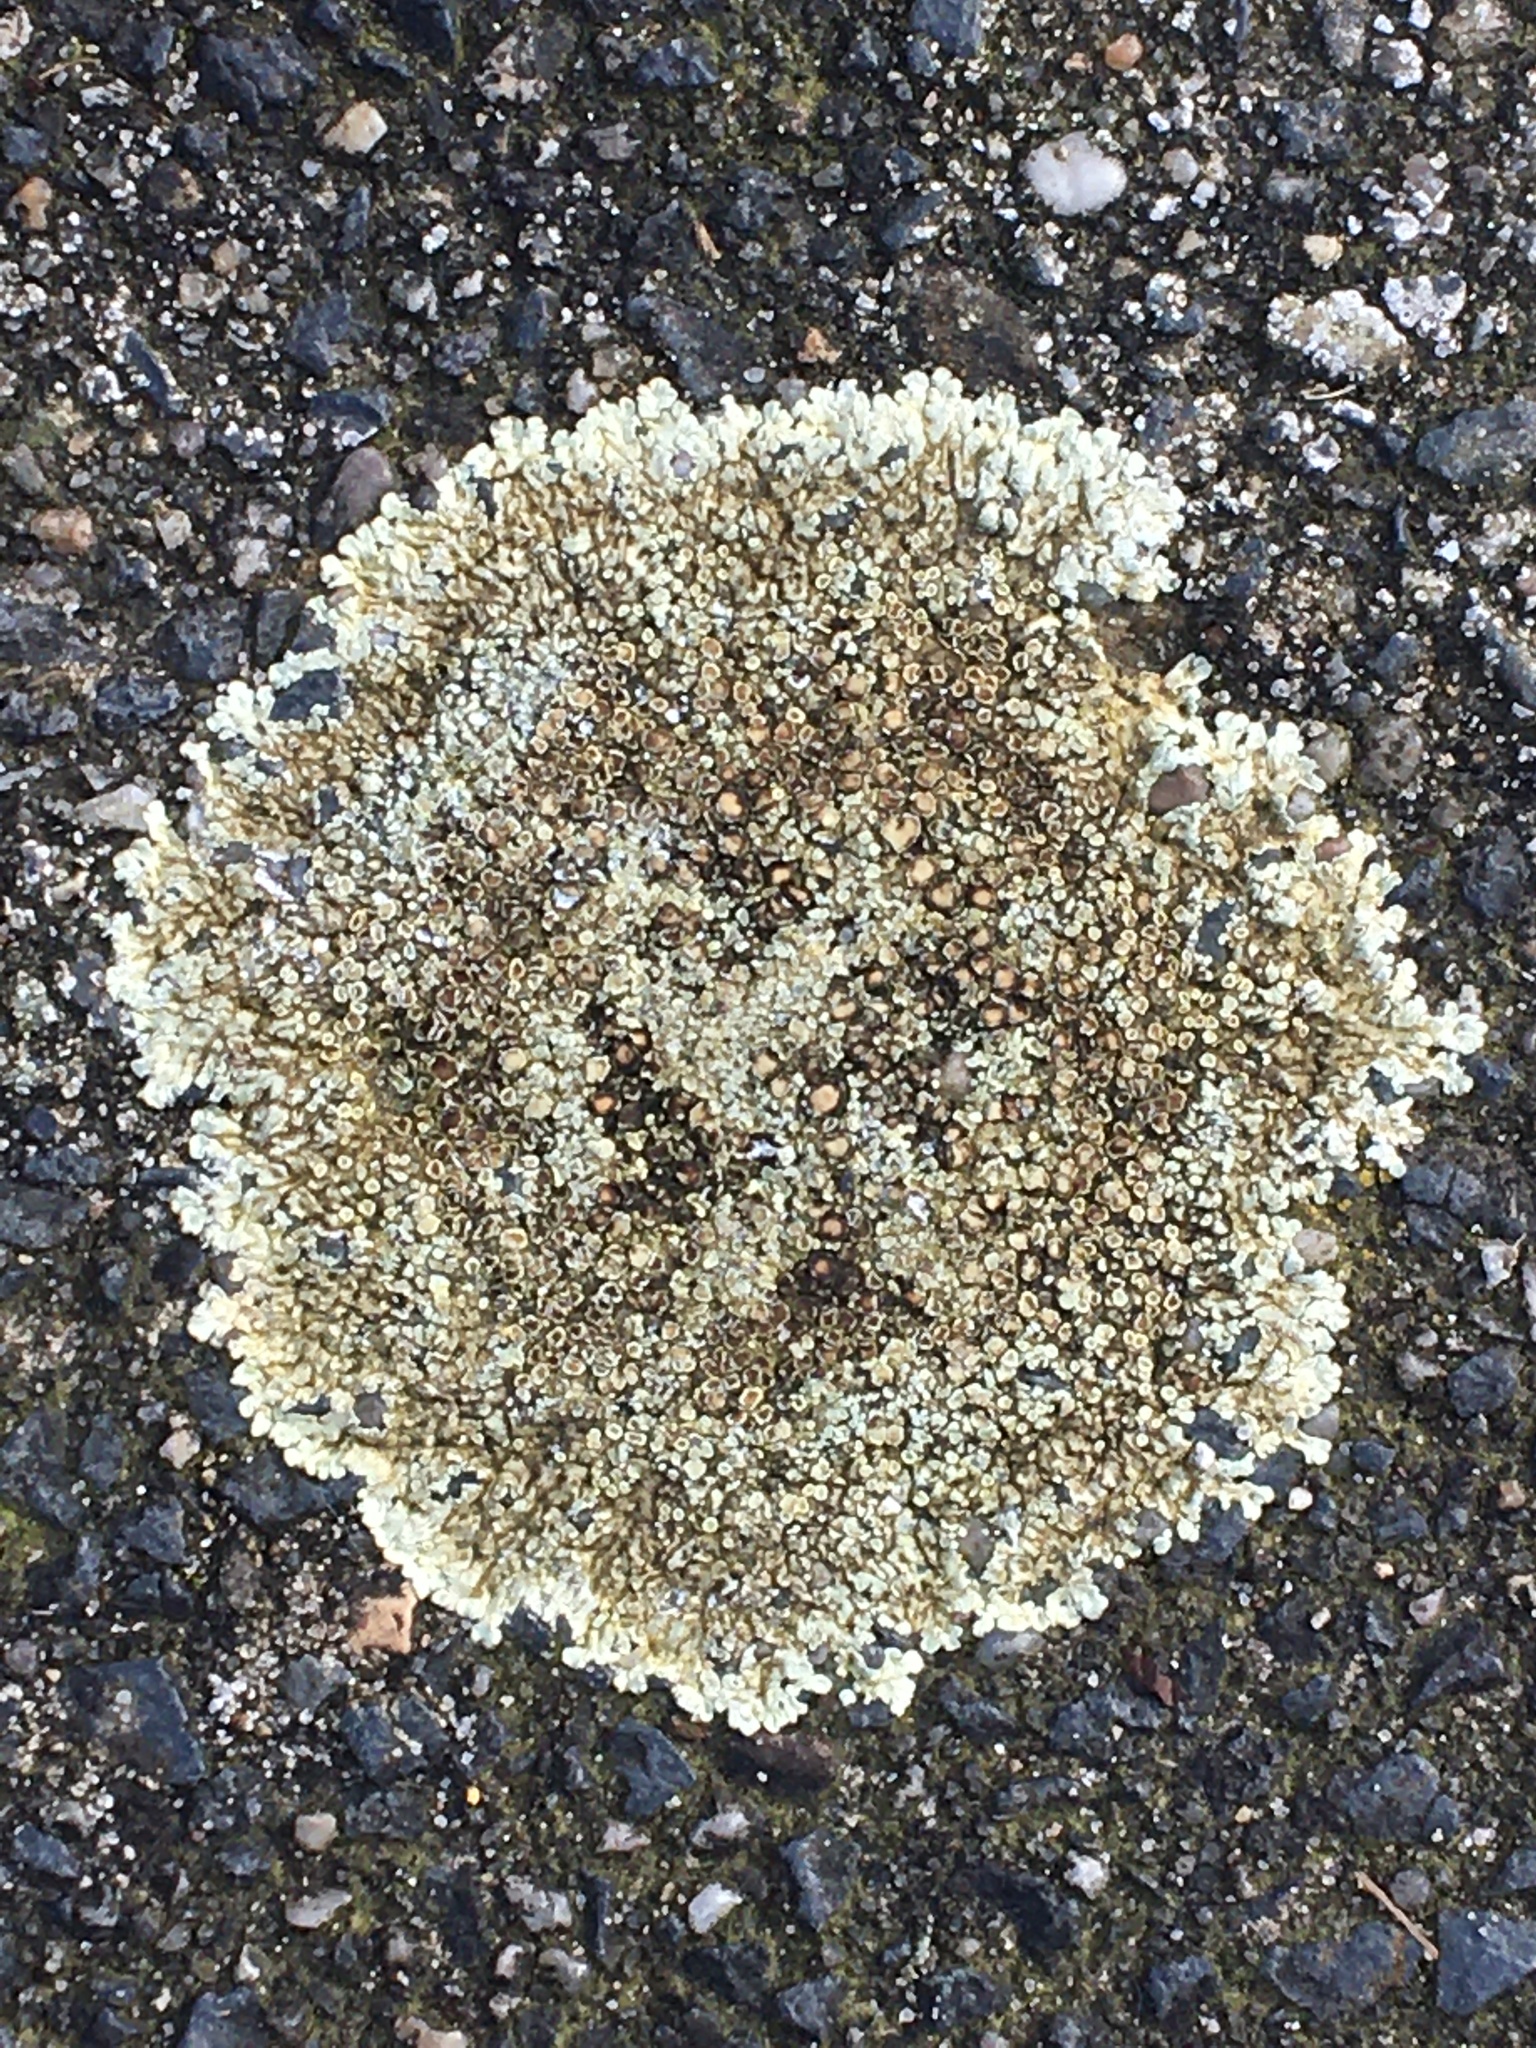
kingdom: Fungi
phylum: Ascomycota
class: Lecanoromycetes
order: Lecanorales
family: Lecanoraceae
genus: Protoparmeliopsis
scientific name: Protoparmeliopsis muralis
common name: Stonewall rim lichen
